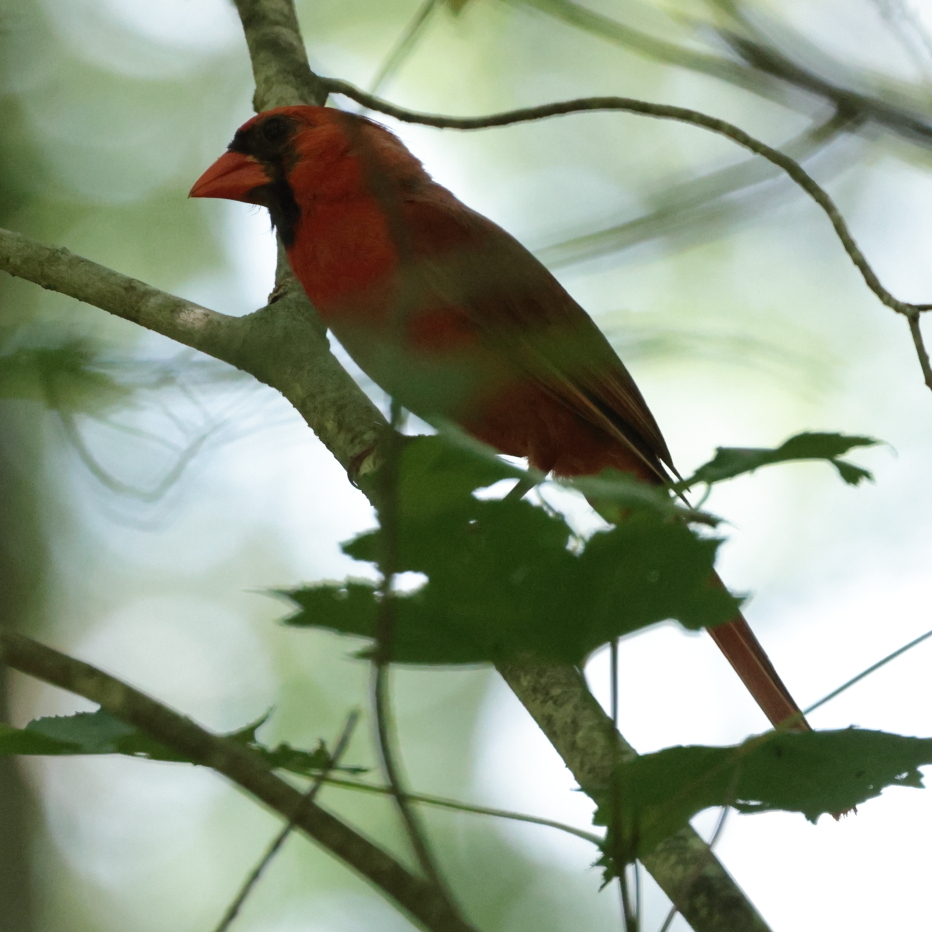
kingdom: Animalia
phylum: Chordata
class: Aves
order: Passeriformes
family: Cardinalidae
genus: Cardinalis
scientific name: Cardinalis cardinalis
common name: Northern cardinal
